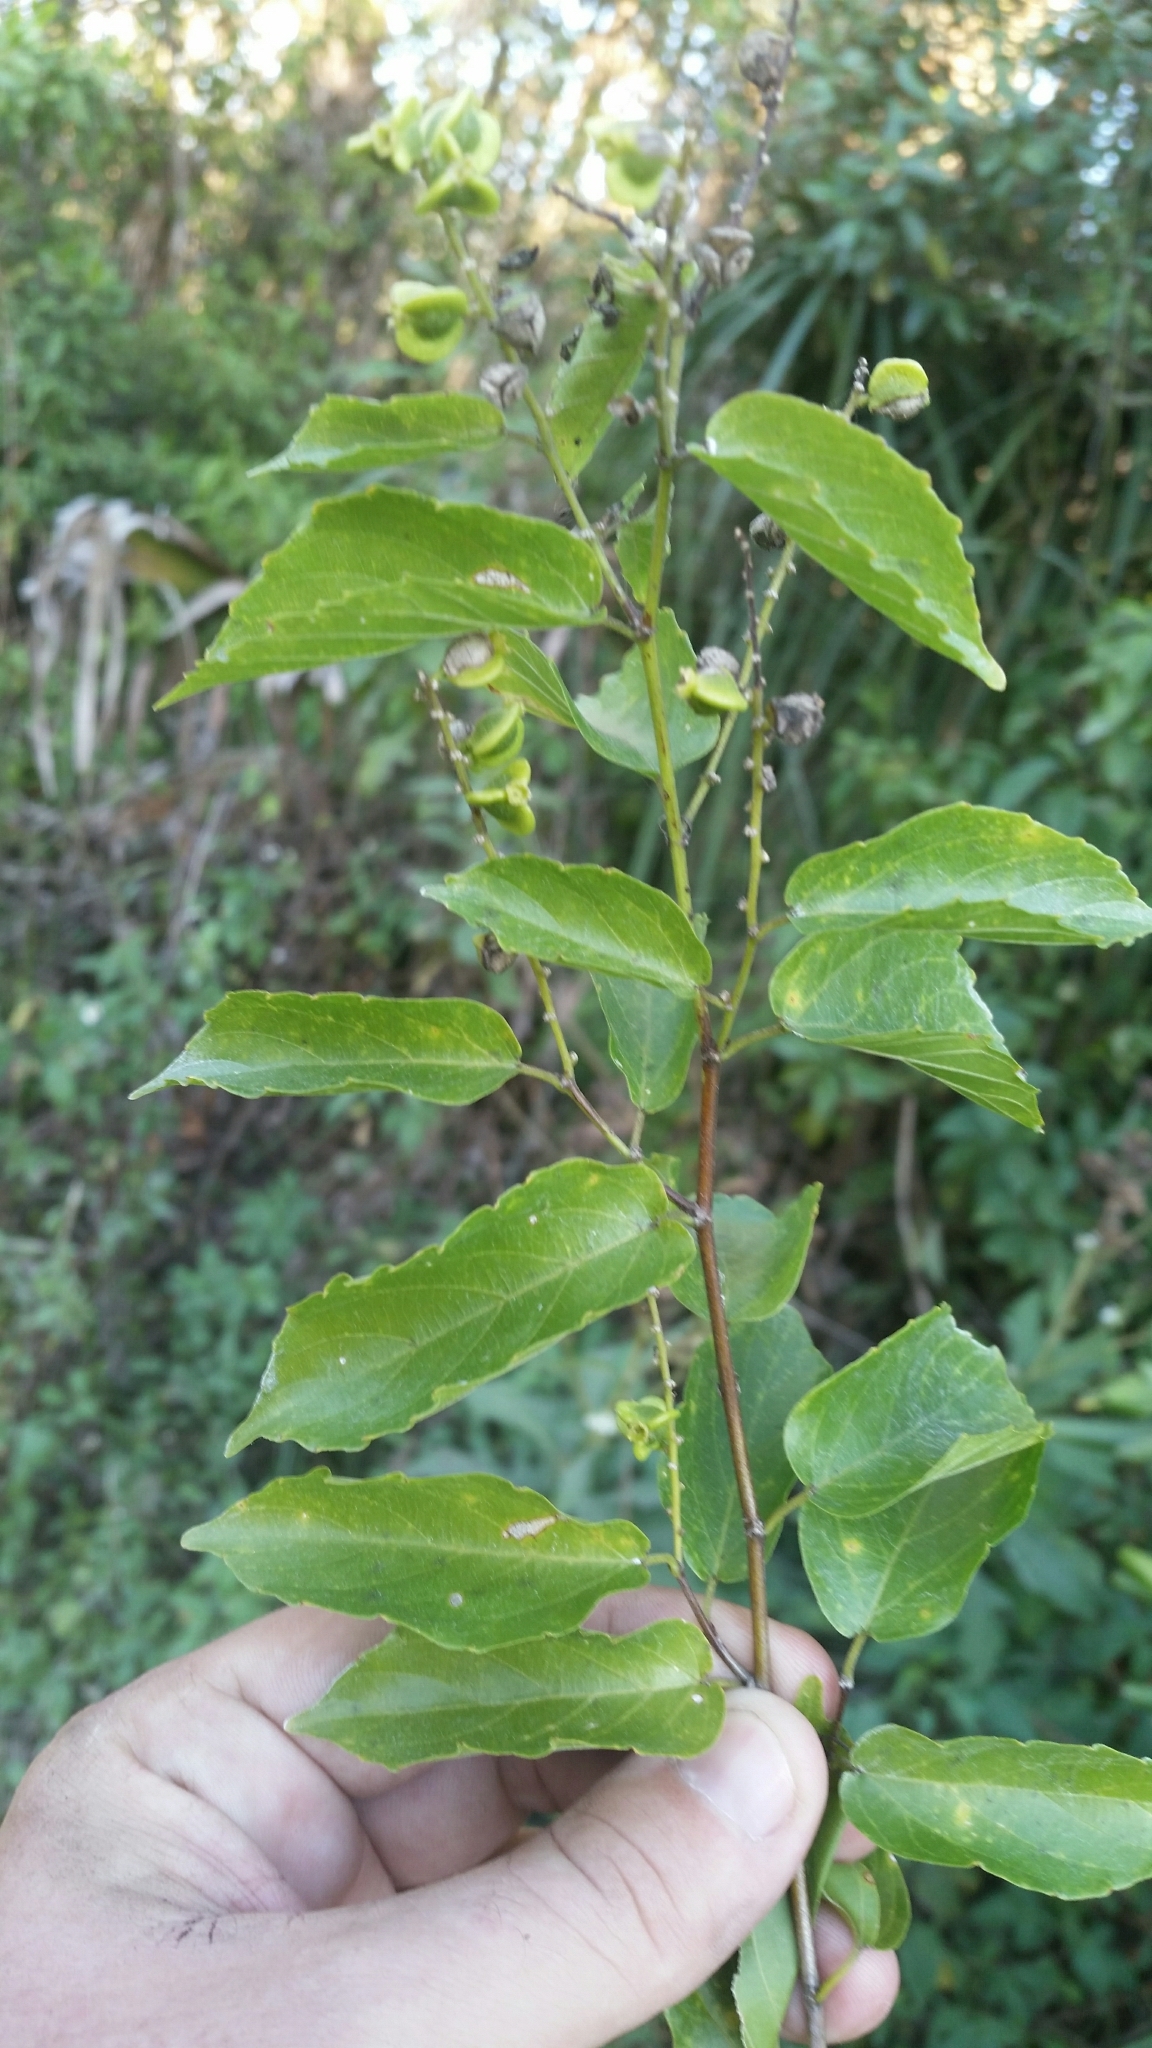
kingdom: Plantae
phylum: Tracheophyta
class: Magnoliopsida
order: Rosales
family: Rhamnaceae
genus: Gouania
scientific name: Gouania lupuloides
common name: Chewstick
